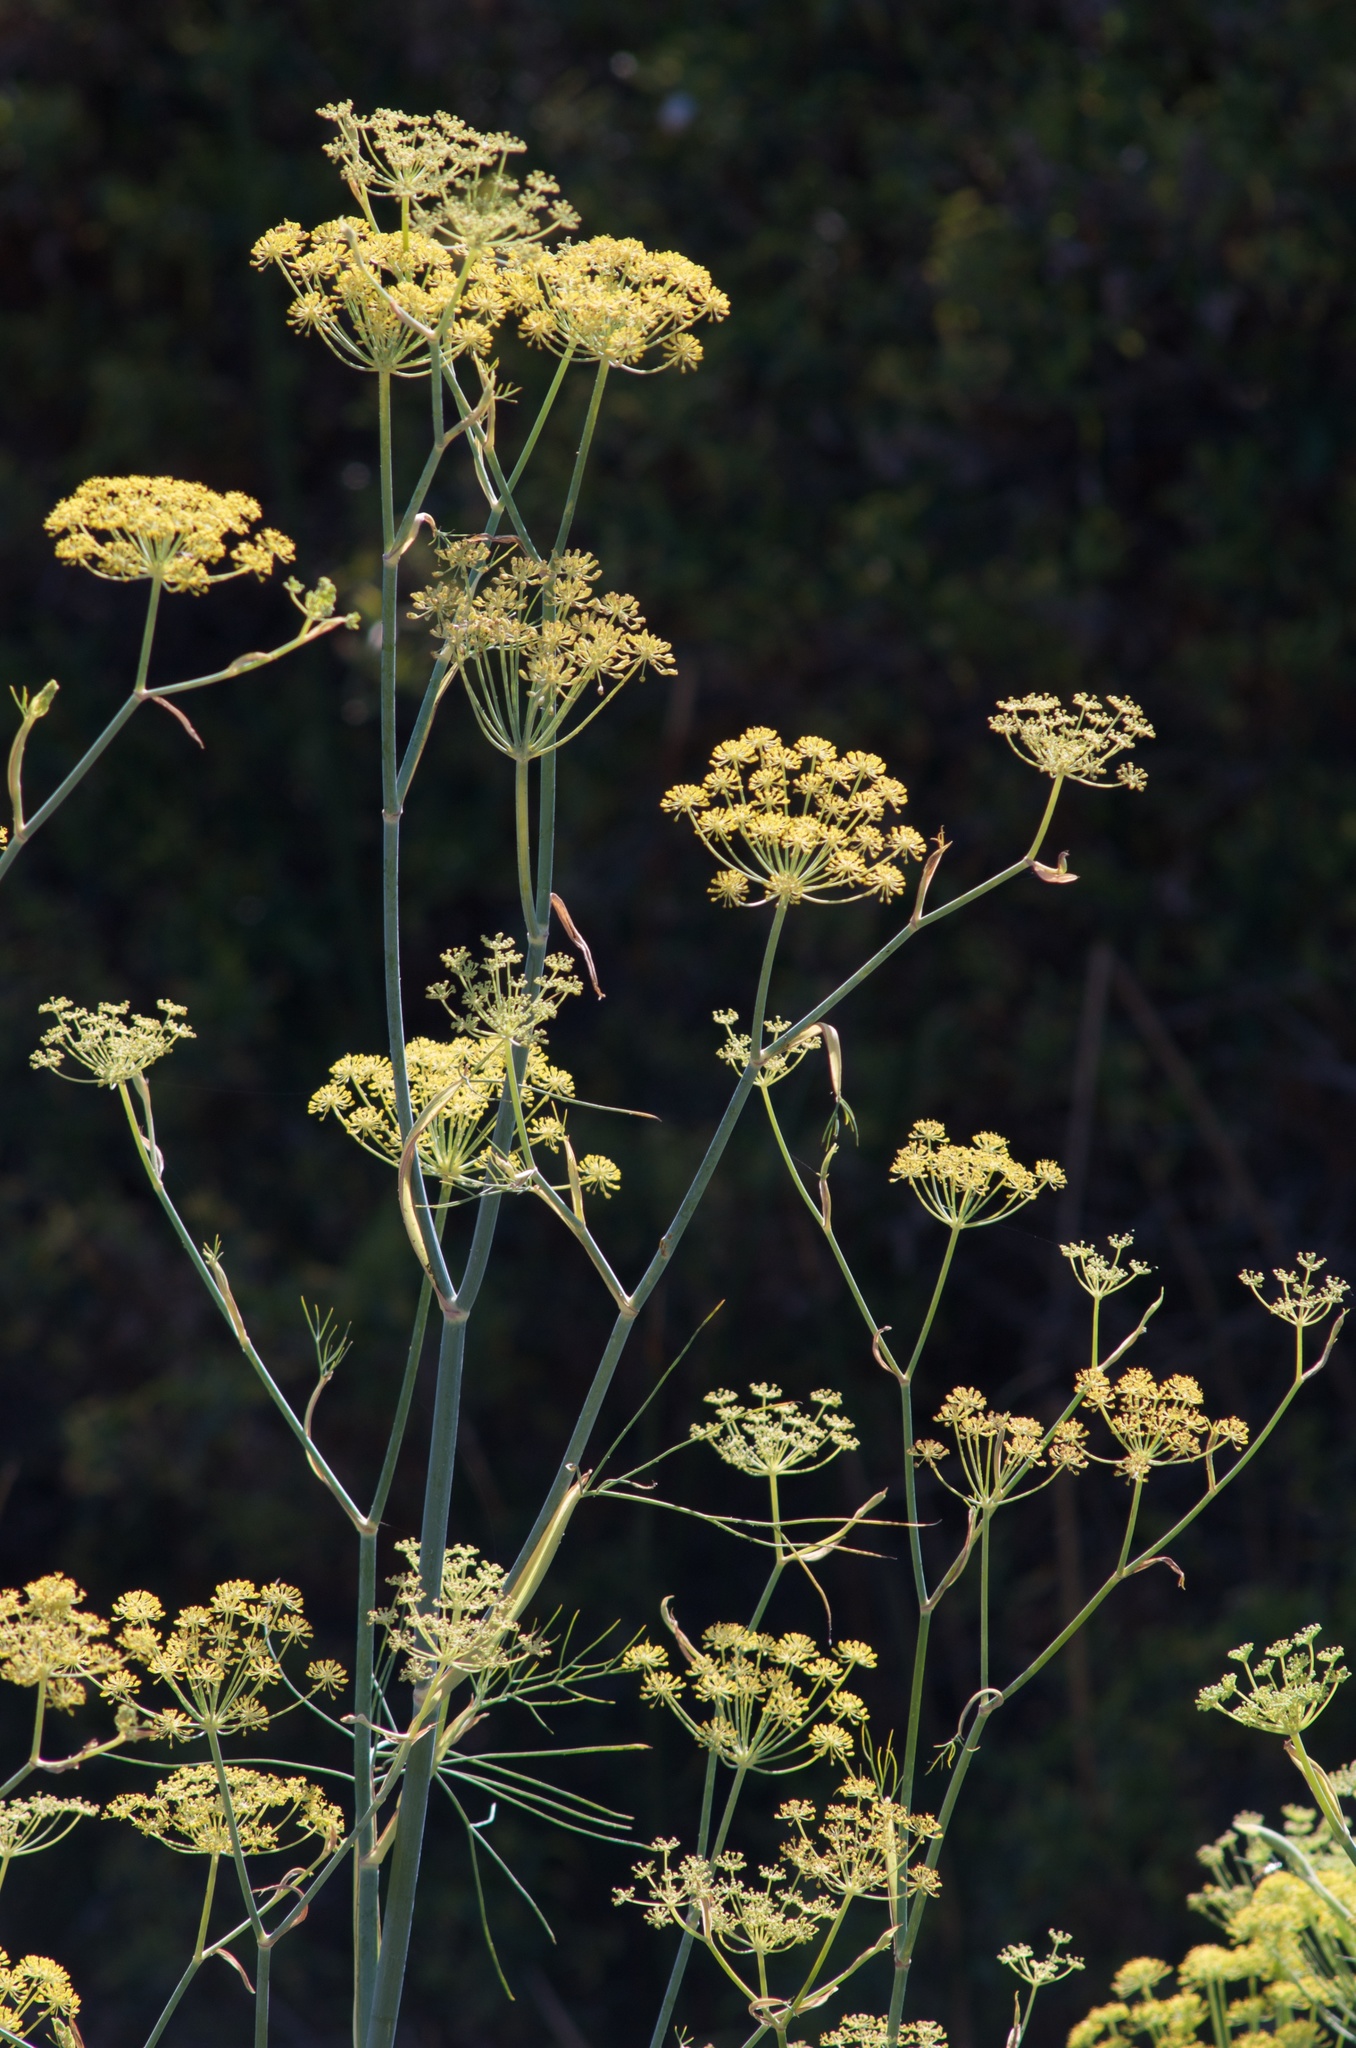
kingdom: Plantae
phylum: Tracheophyta
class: Magnoliopsida
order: Apiales
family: Apiaceae
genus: Foeniculum
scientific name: Foeniculum vulgare
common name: Fennel
